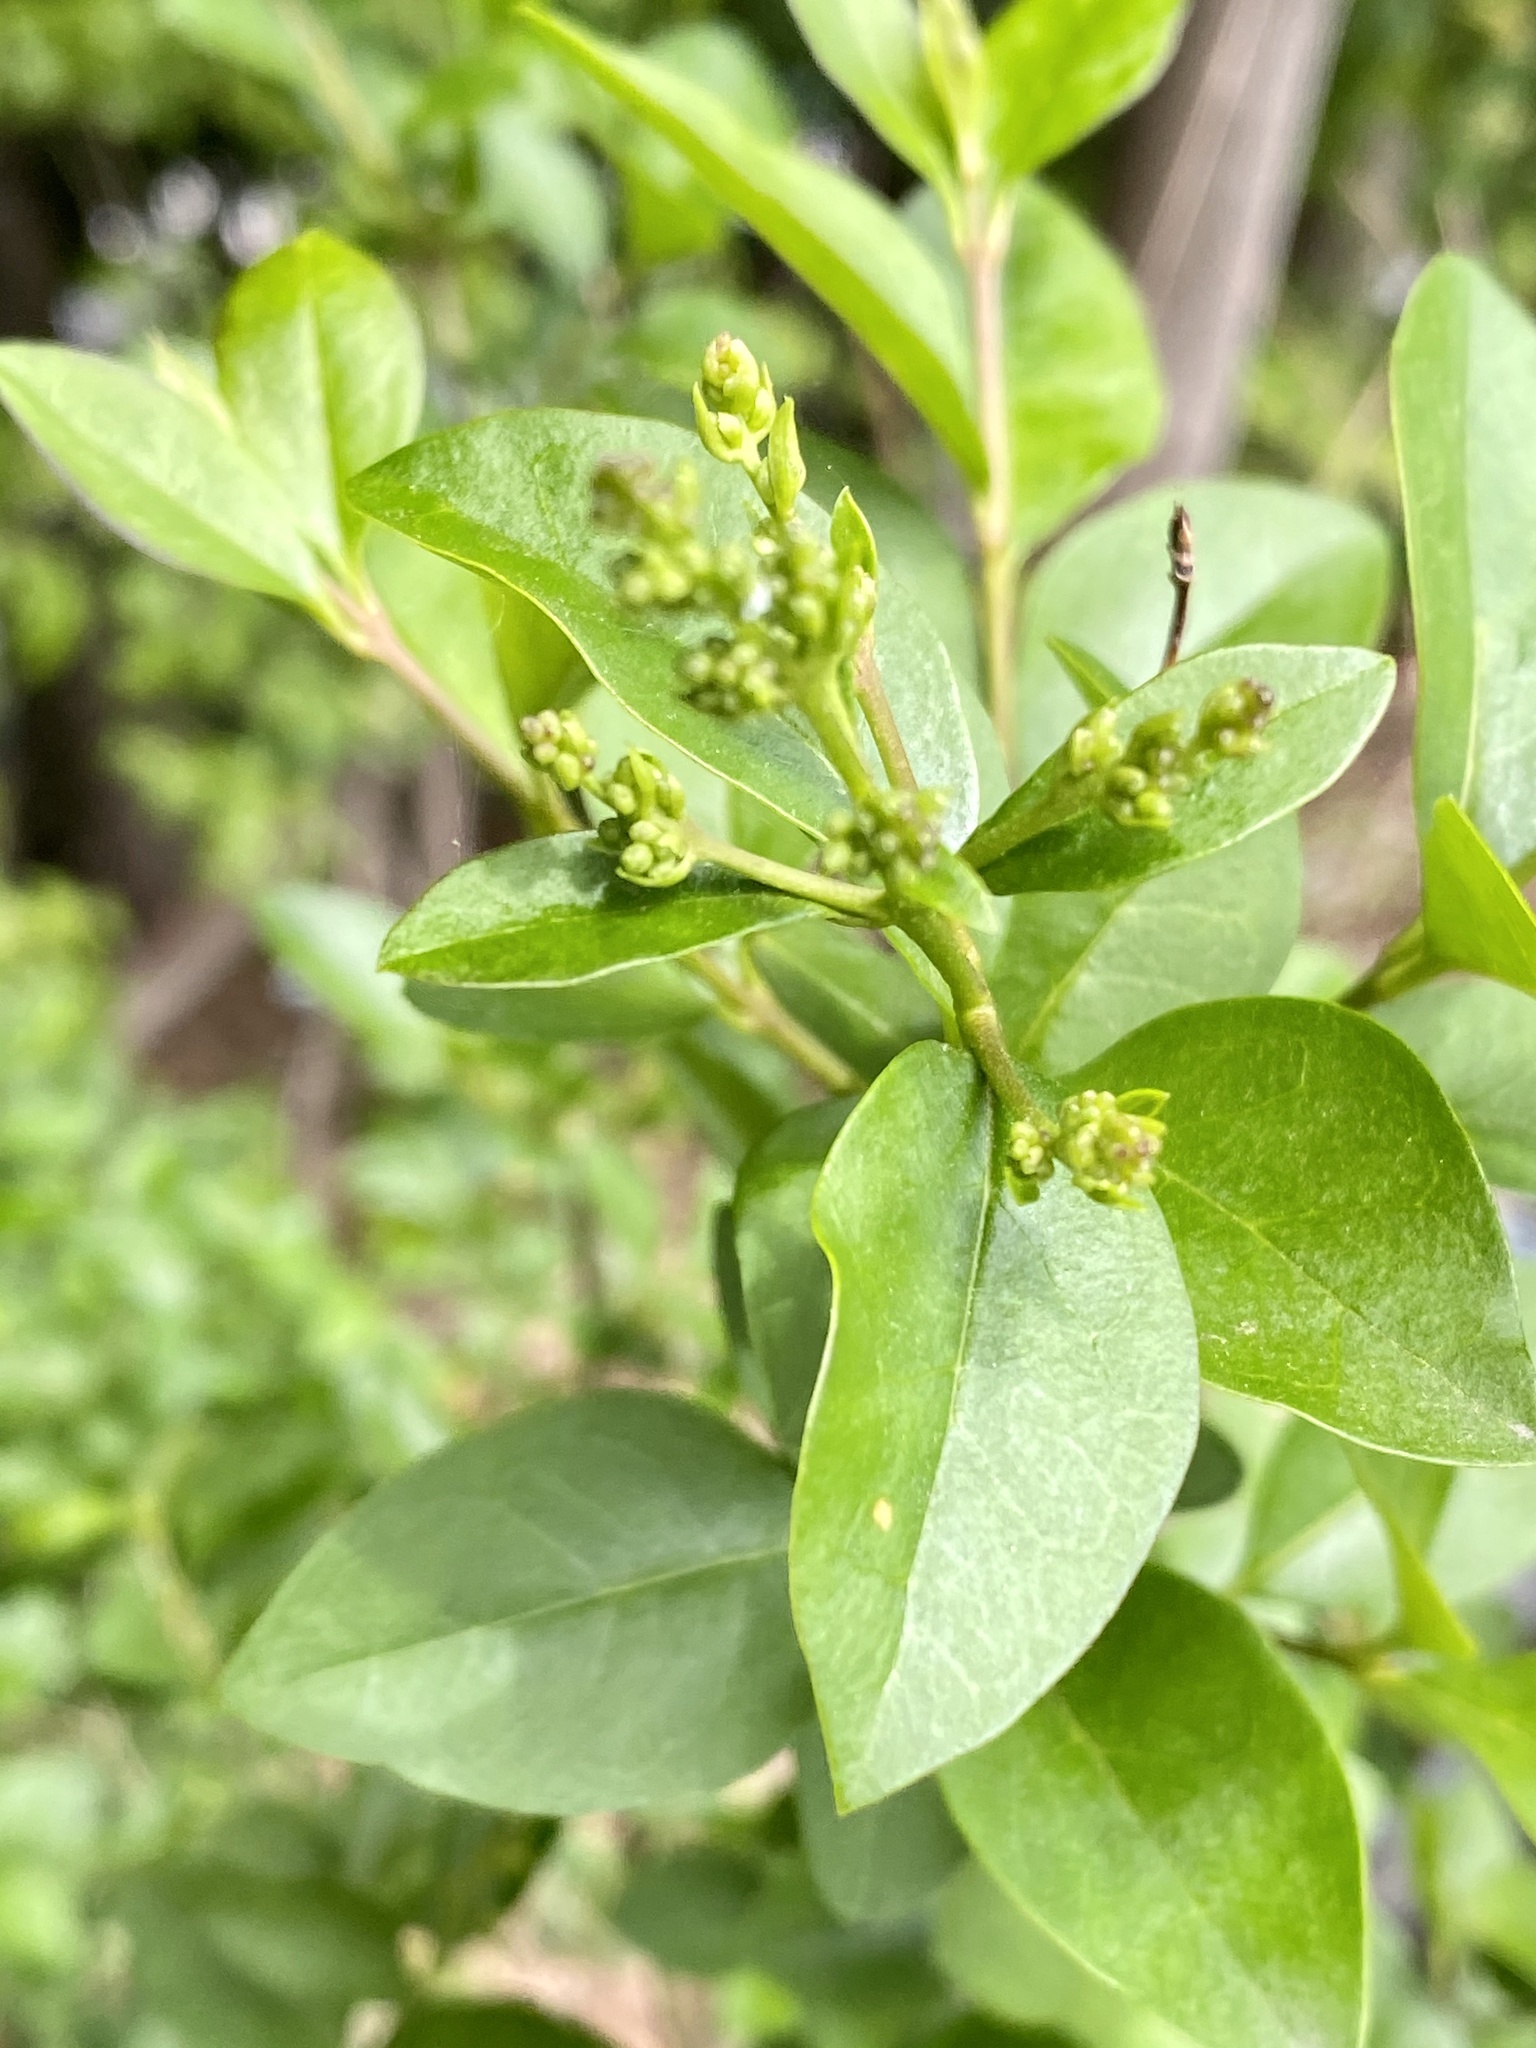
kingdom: Plantae
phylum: Tracheophyta
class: Magnoliopsida
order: Lamiales
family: Oleaceae
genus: Ligustrum
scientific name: Ligustrum ovalifolium
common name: California privet
